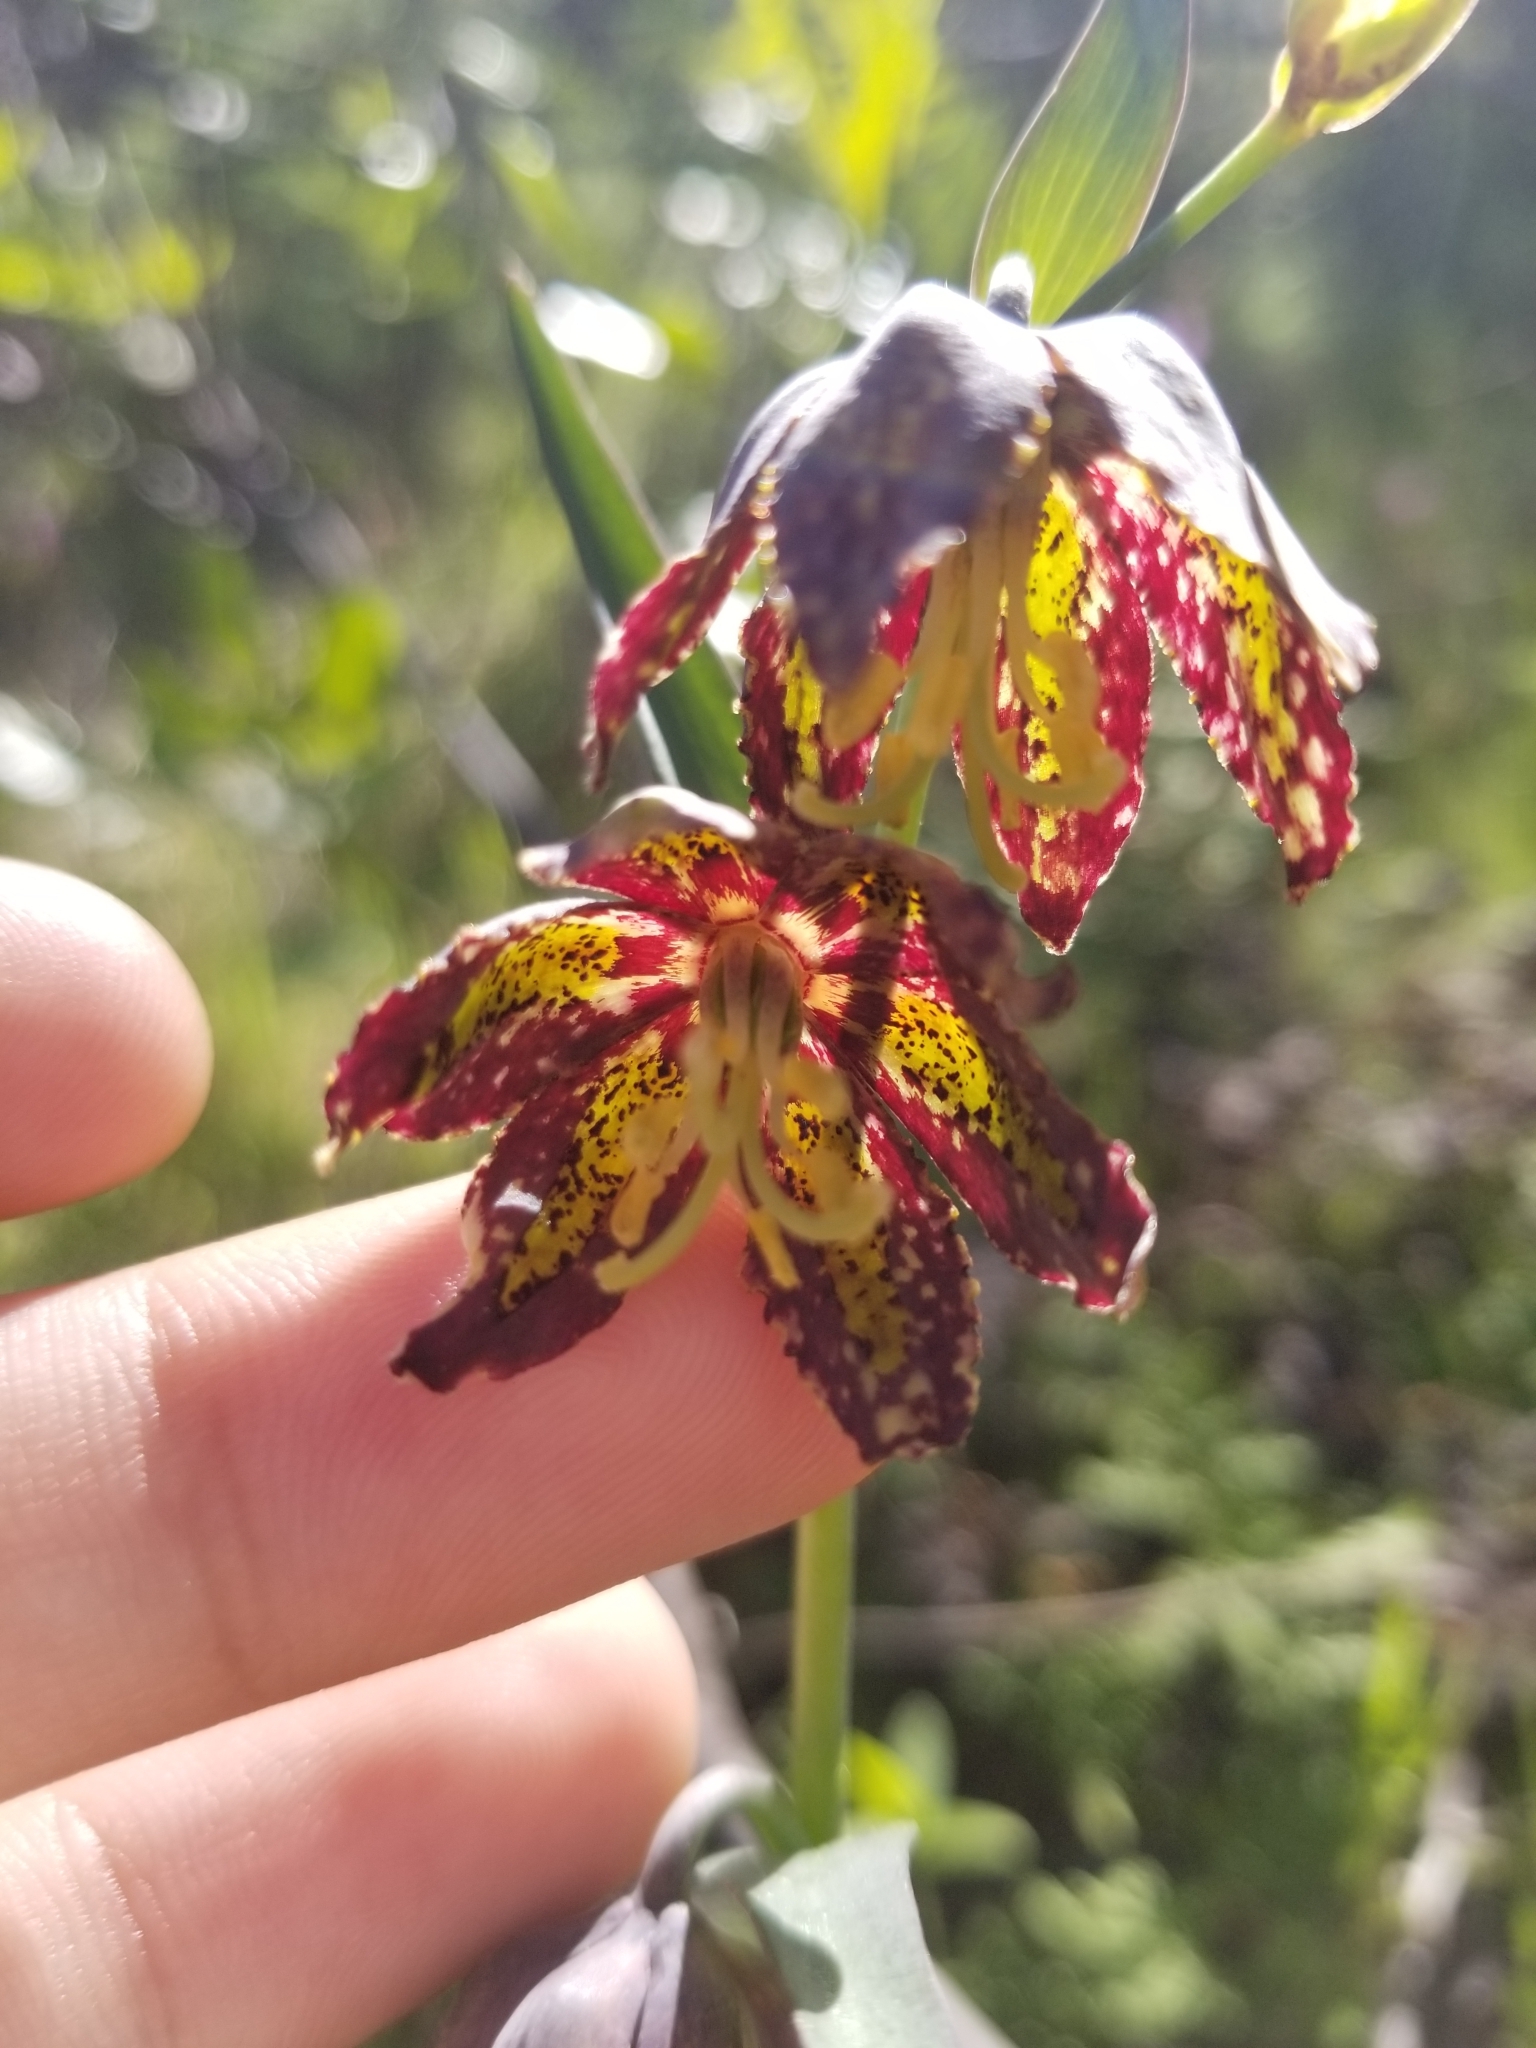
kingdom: Plantae
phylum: Tracheophyta
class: Liliopsida
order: Liliales
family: Liliaceae
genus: Fritillaria
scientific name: Fritillaria affinis
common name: Ojai fritillary
